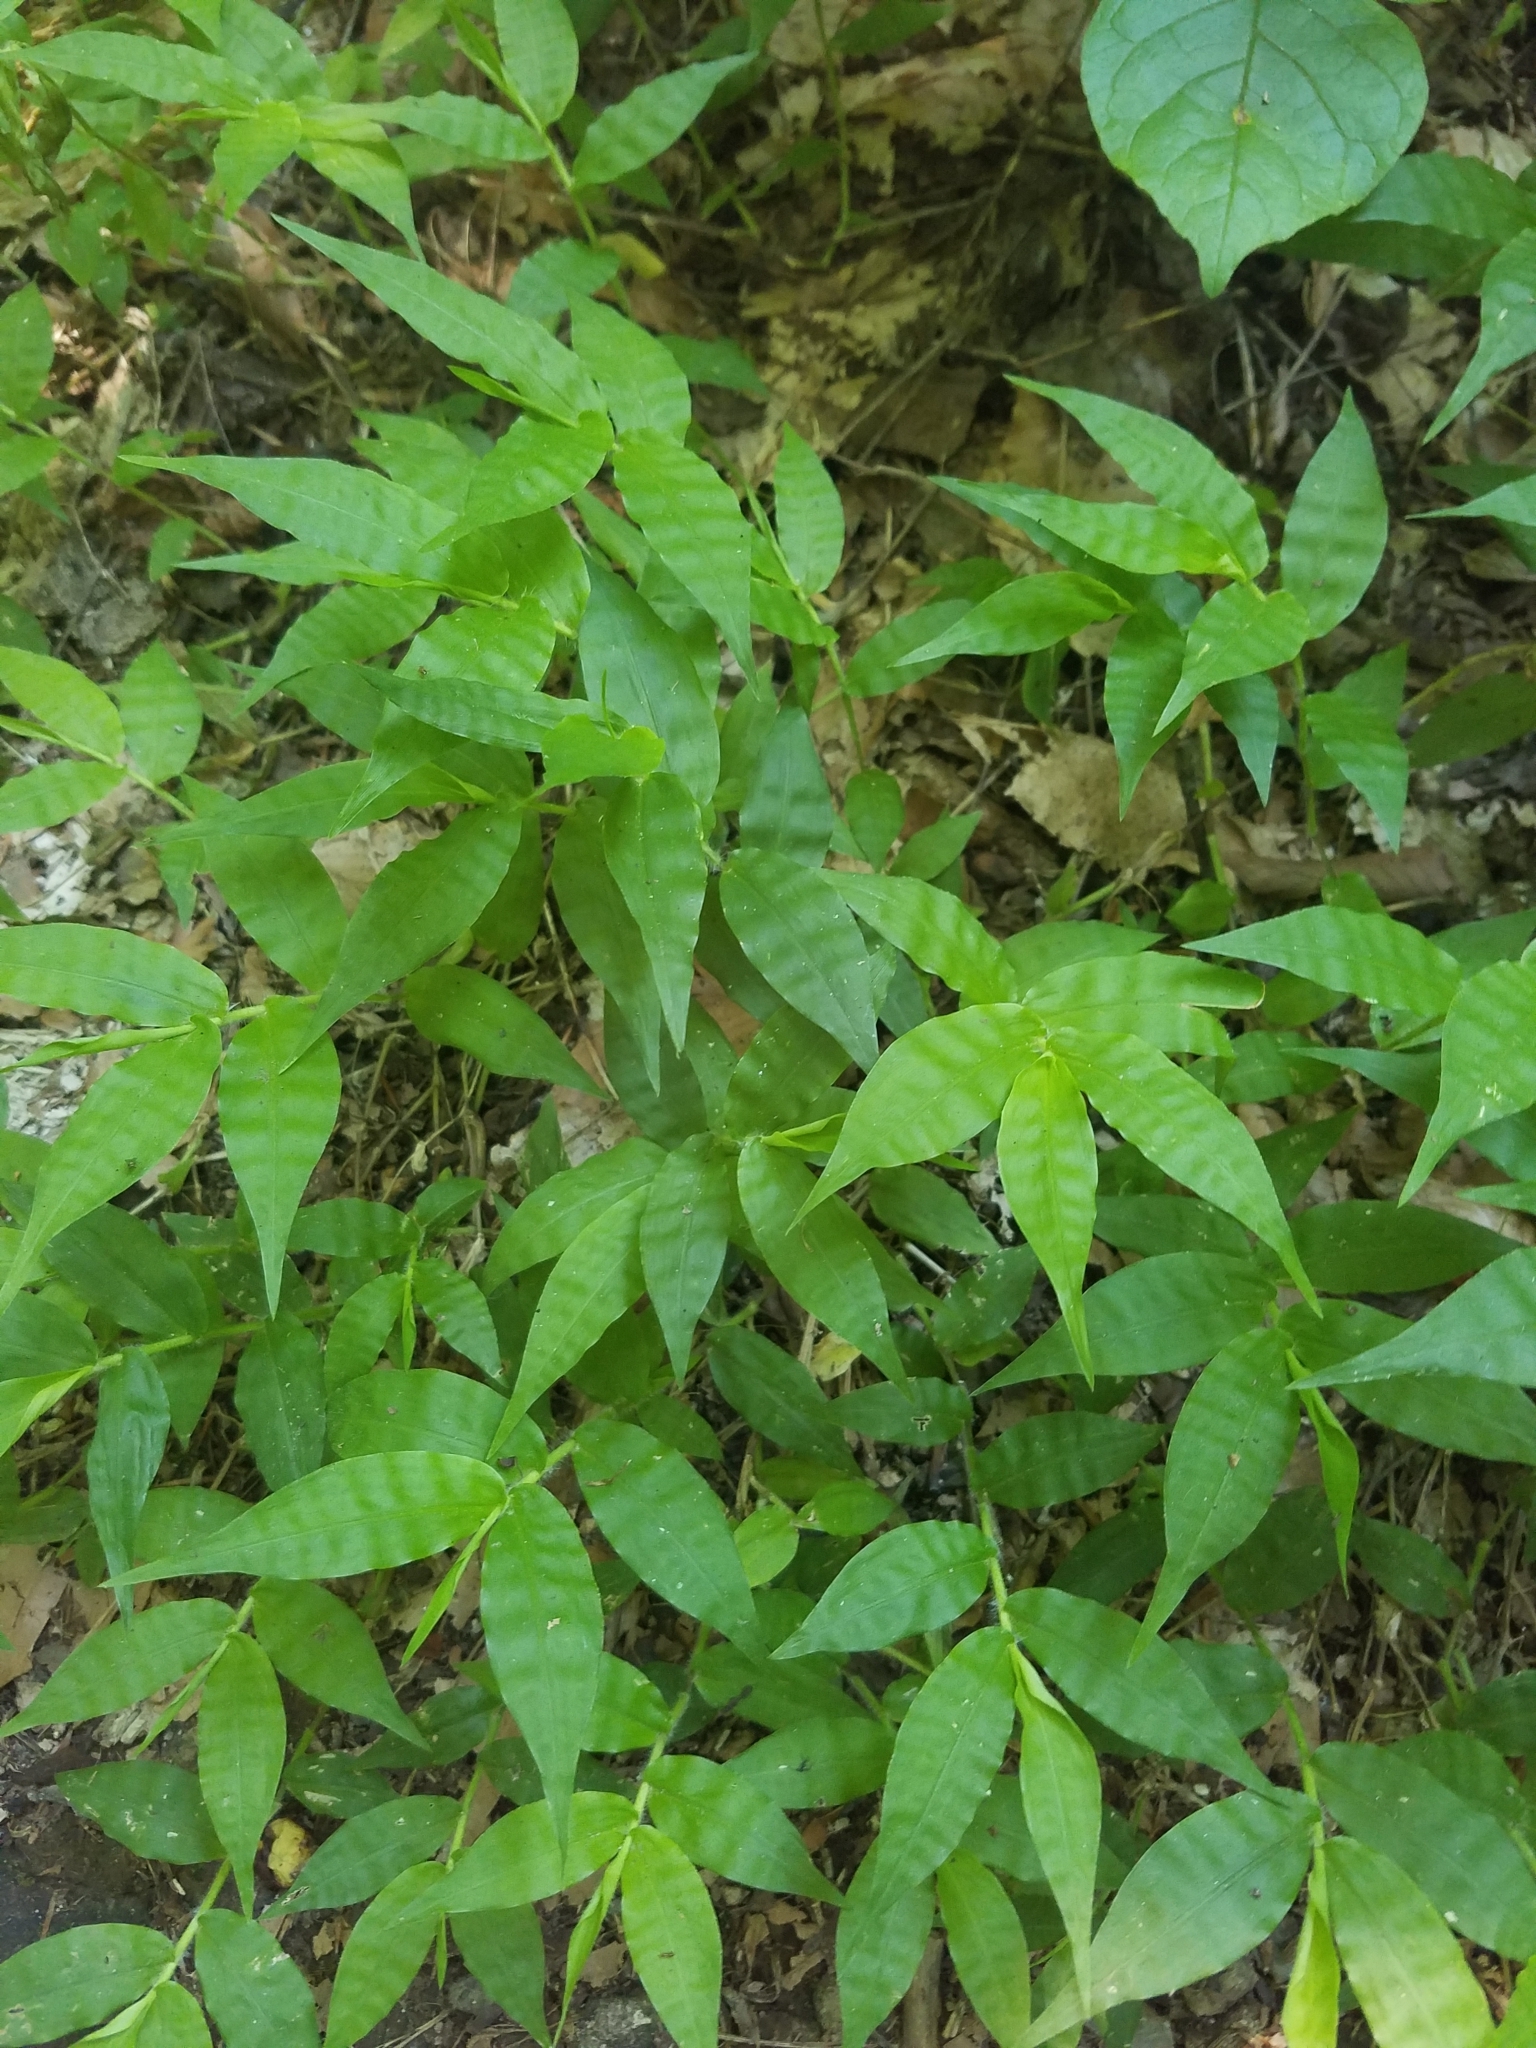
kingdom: Plantae
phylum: Tracheophyta
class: Liliopsida
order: Poales
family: Poaceae
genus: Oplismenus
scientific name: Oplismenus undulatifolius
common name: Wavyleaf basketgrass
